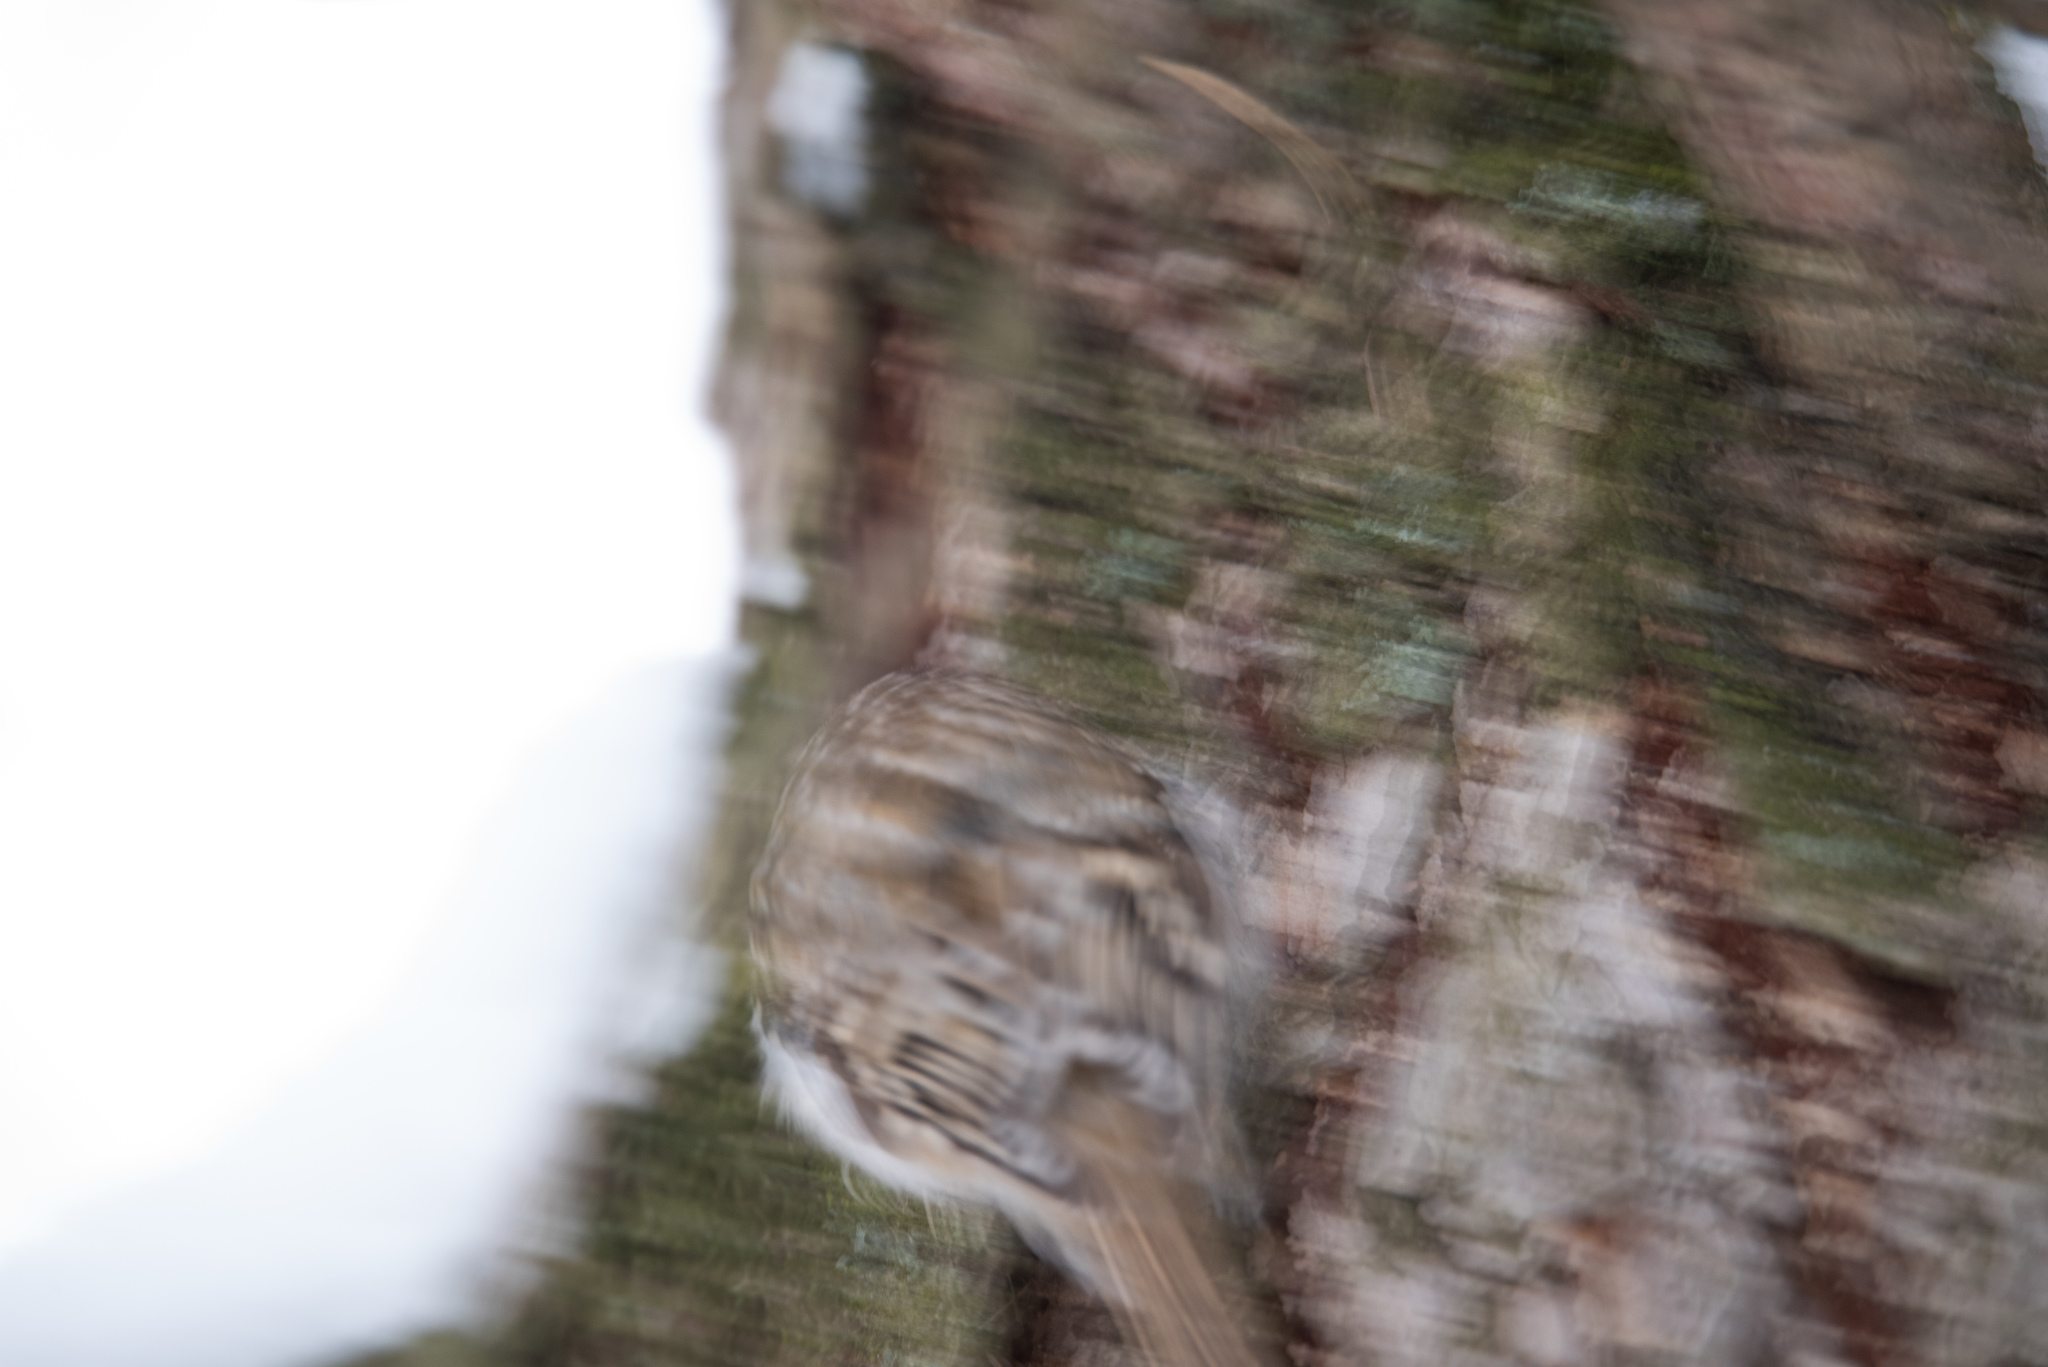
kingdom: Animalia
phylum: Chordata
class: Aves
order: Passeriformes
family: Certhiidae
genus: Certhia
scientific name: Certhia familiaris
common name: Eurasian treecreeper
